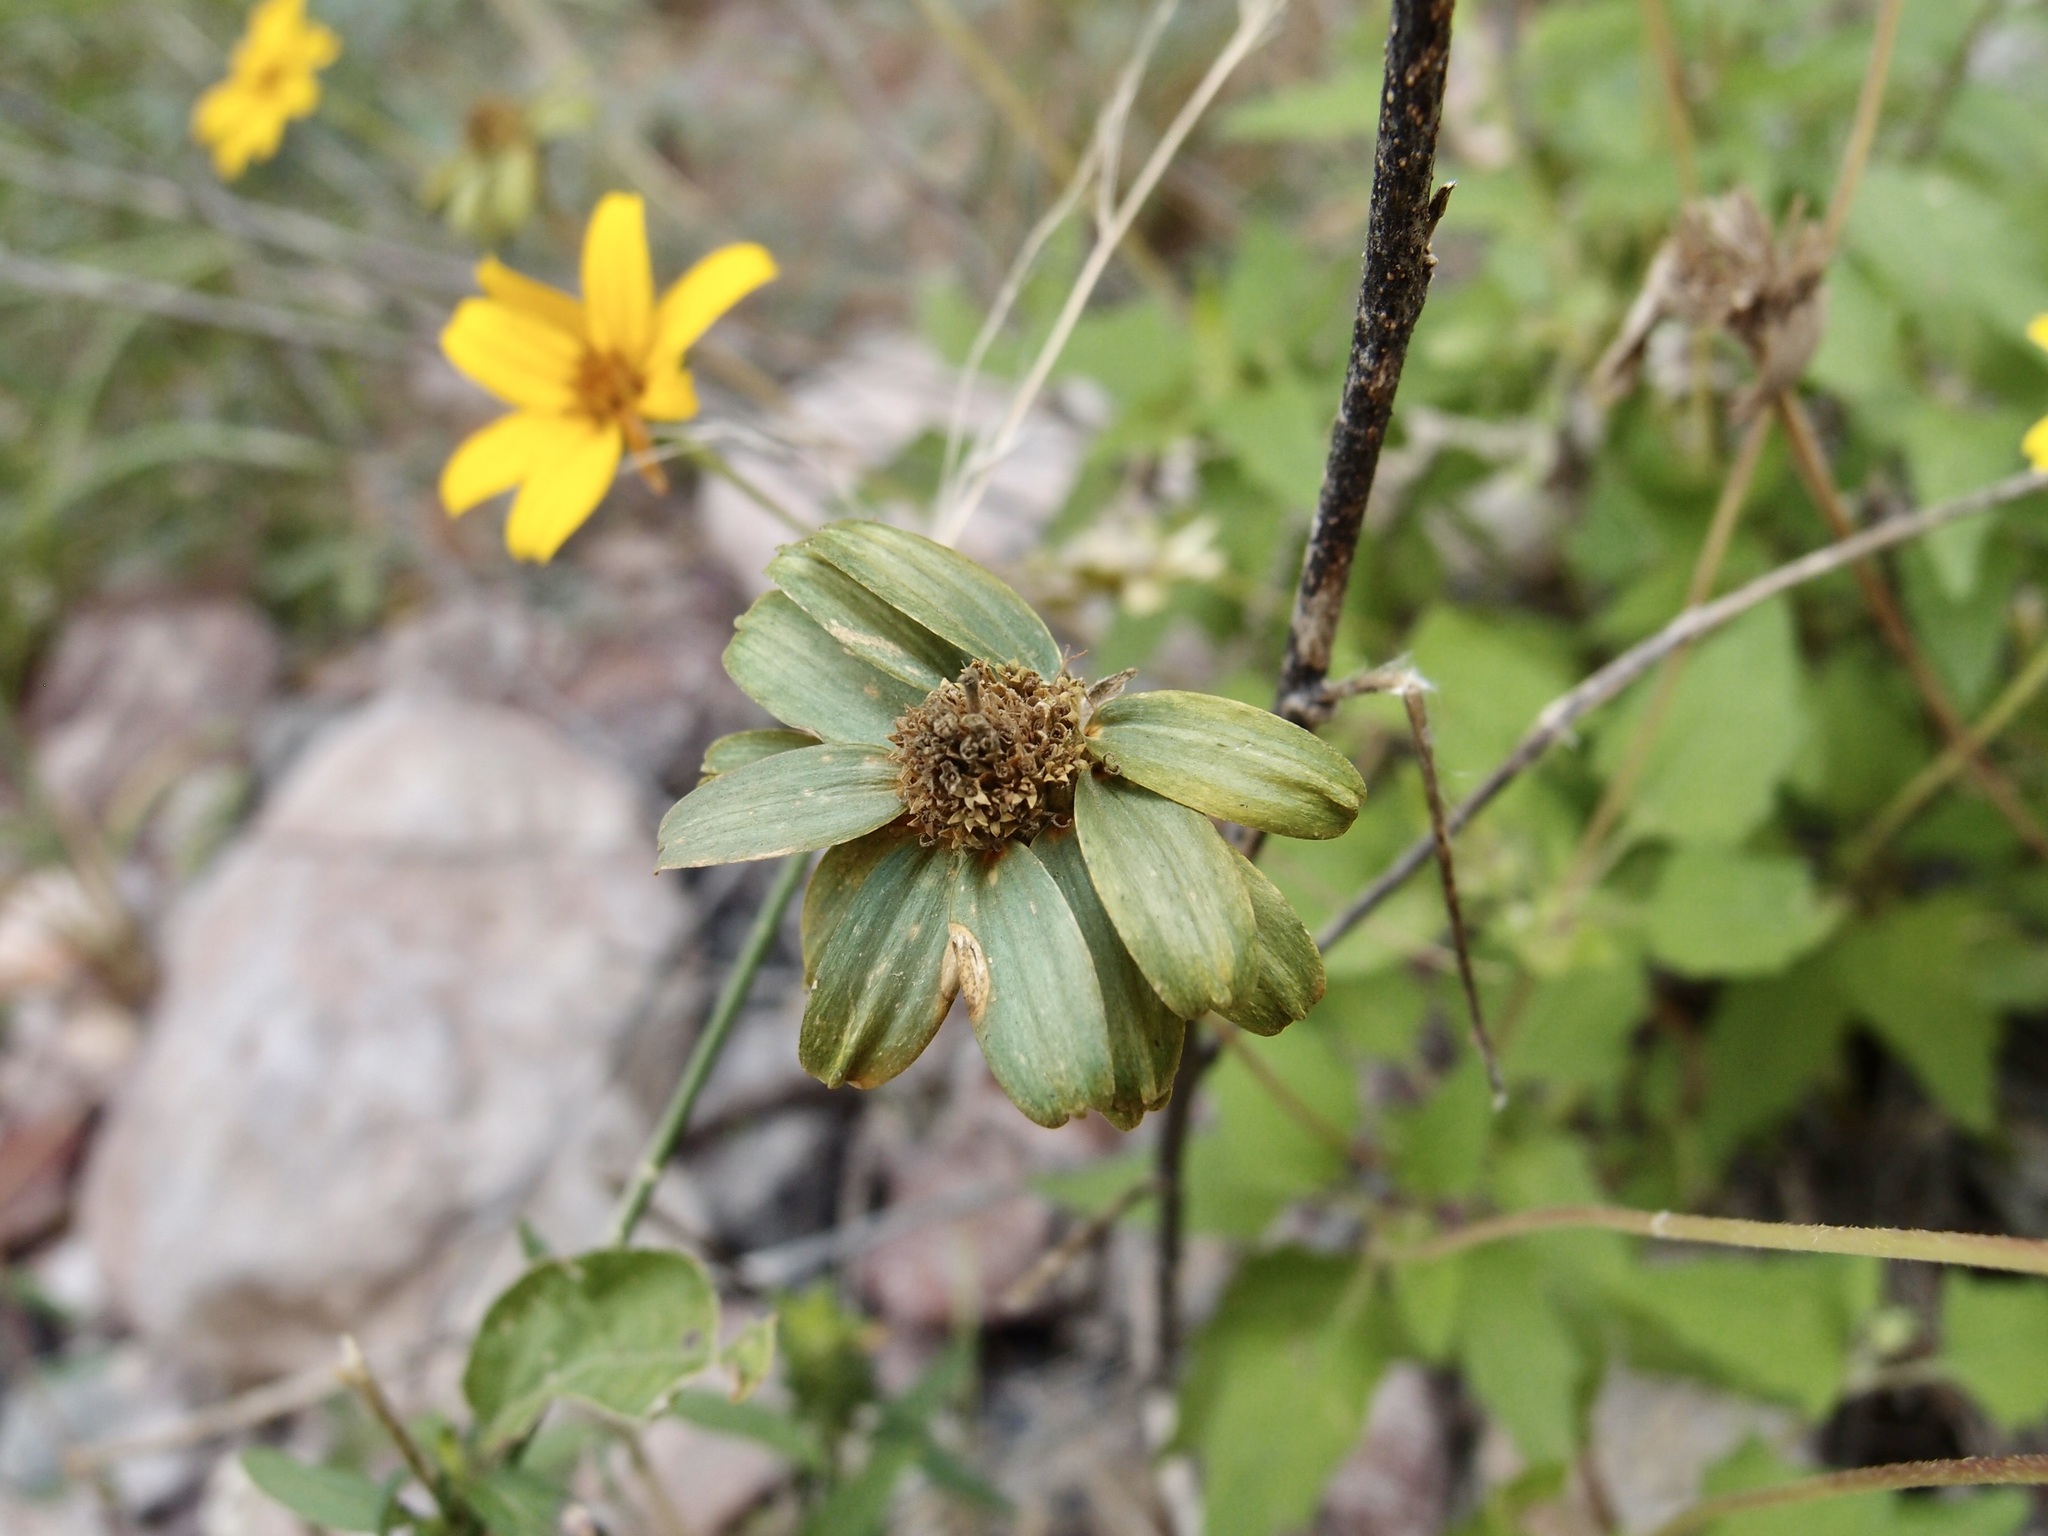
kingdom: Plantae
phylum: Tracheophyta
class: Magnoliopsida
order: Asterales
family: Asteraceae
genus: Heliopsis
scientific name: Heliopsis anomala
